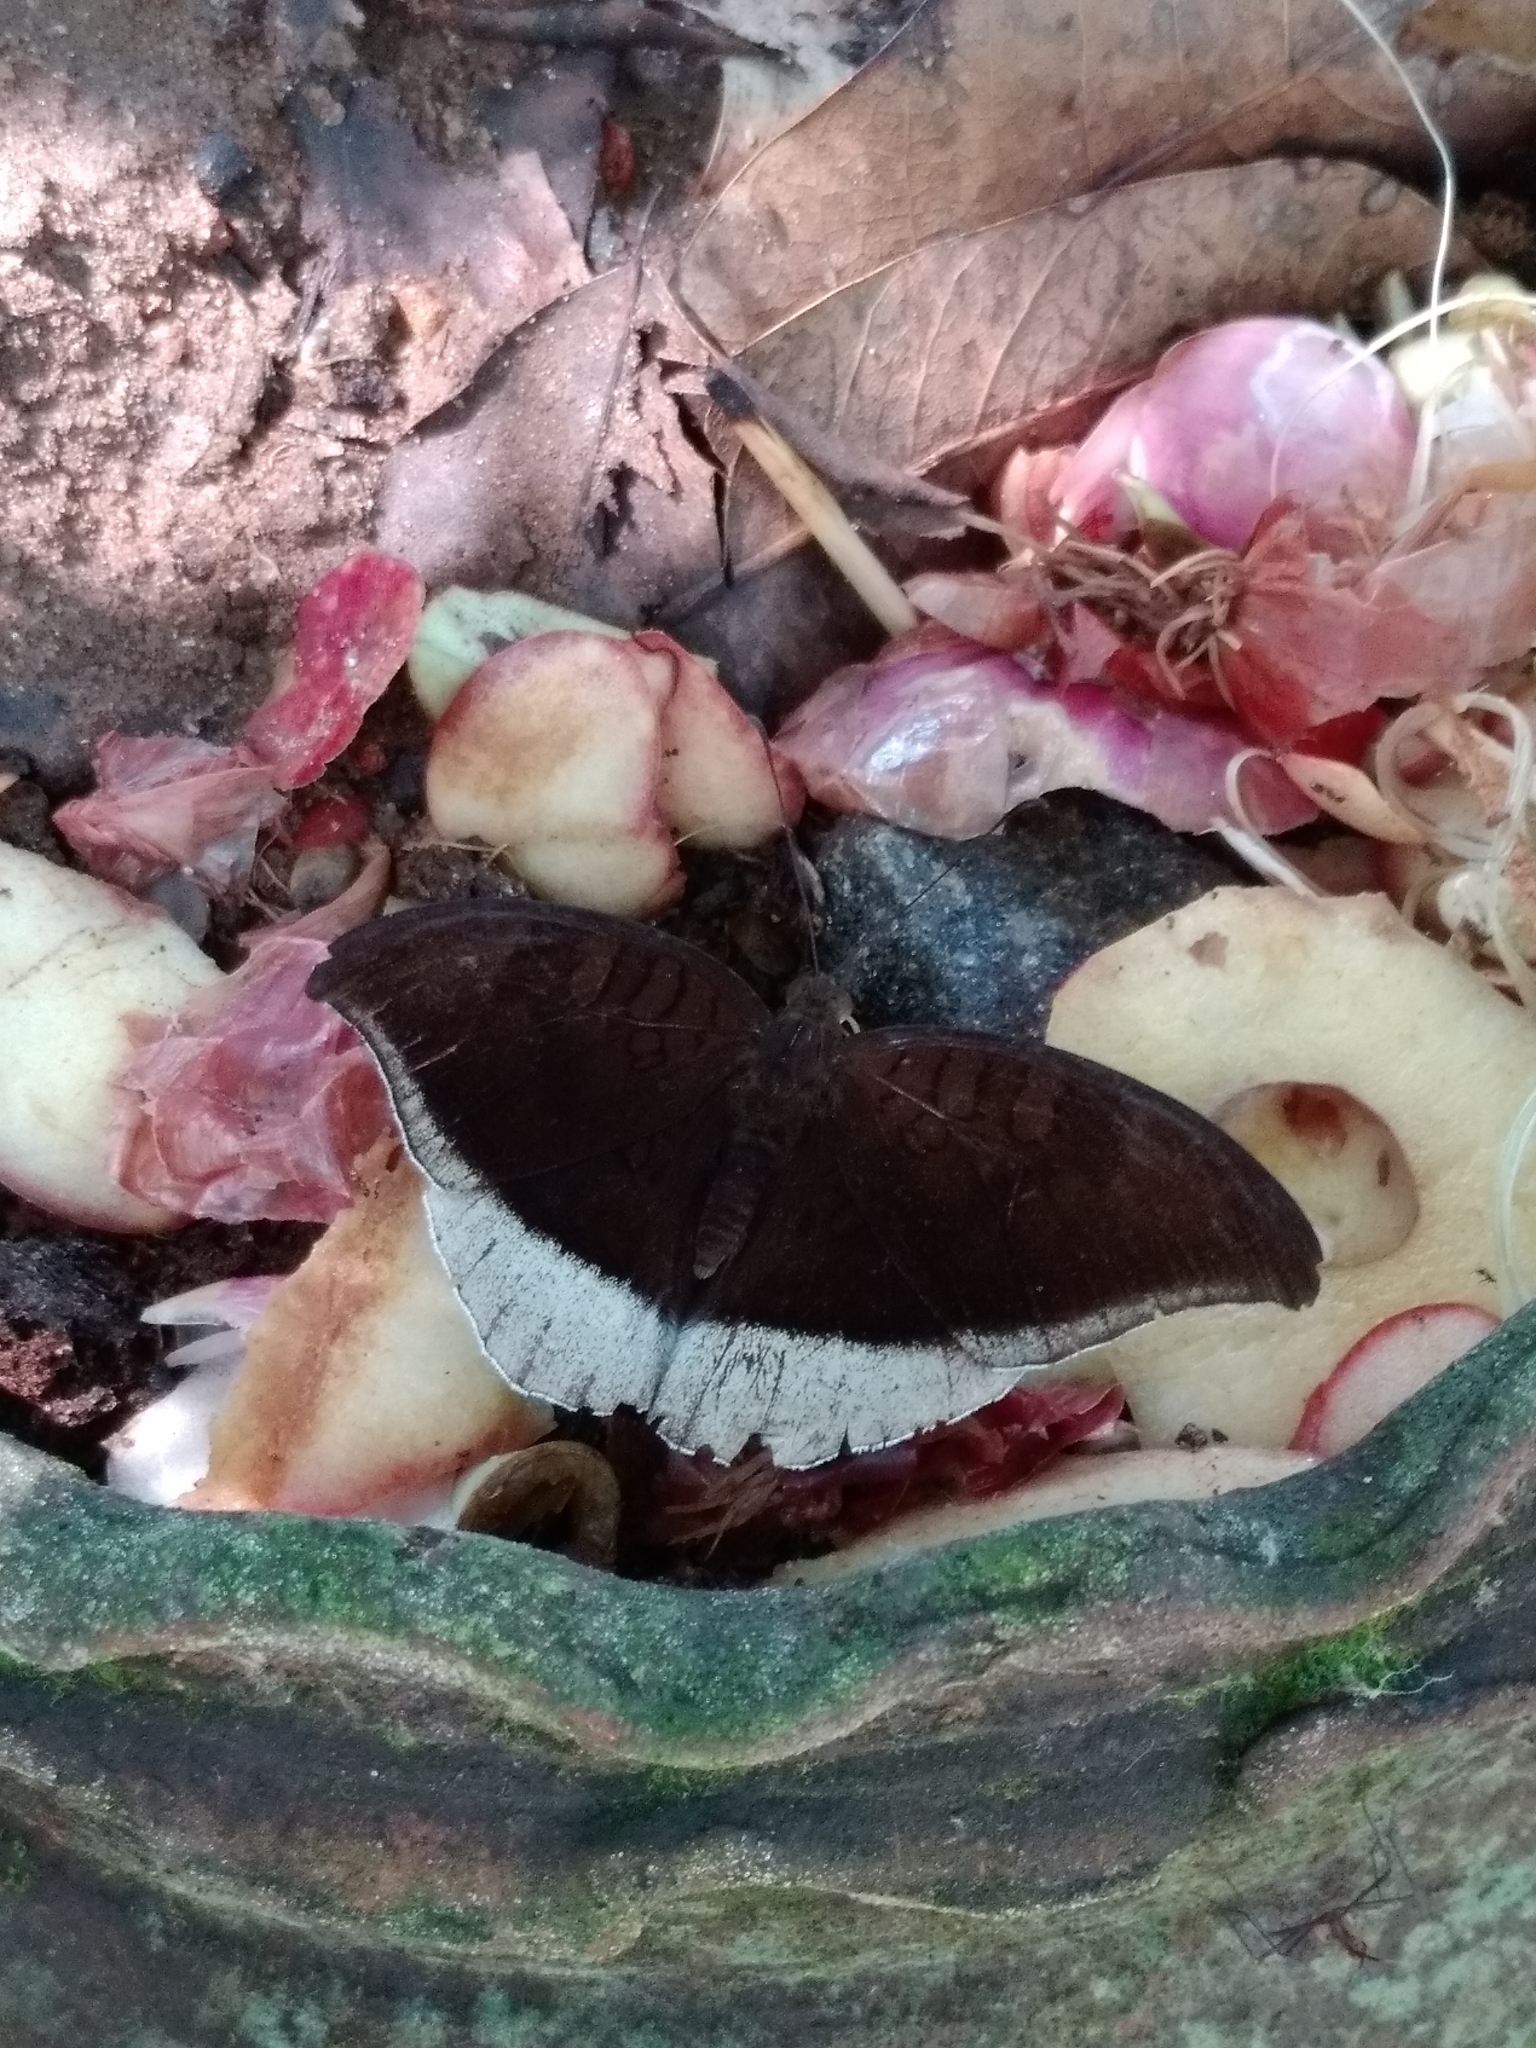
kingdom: Animalia
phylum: Arthropoda
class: Insecta
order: Lepidoptera
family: Nymphalidae
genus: Tanaecia
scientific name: Tanaecia lepidea
